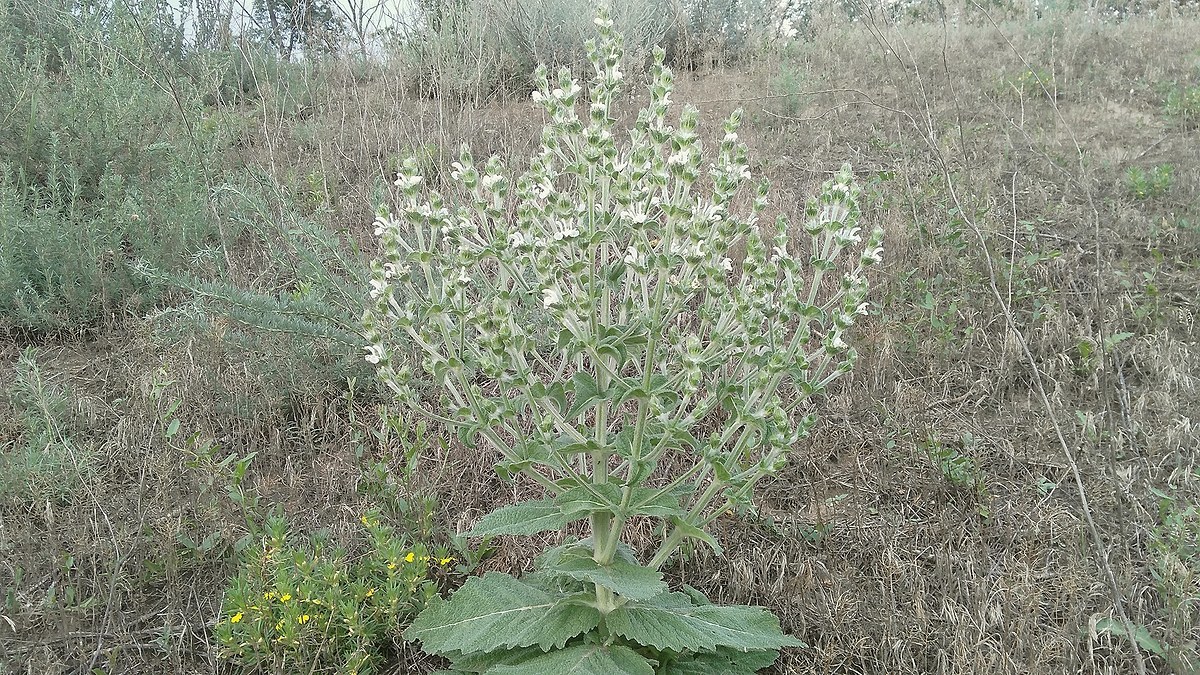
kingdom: Plantae
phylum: Tracheophyta
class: Magnoliopsida
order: Lamiales
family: Lamiaceae
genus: Salvia
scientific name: Salvia aethiopis
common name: Mediterranean sage
